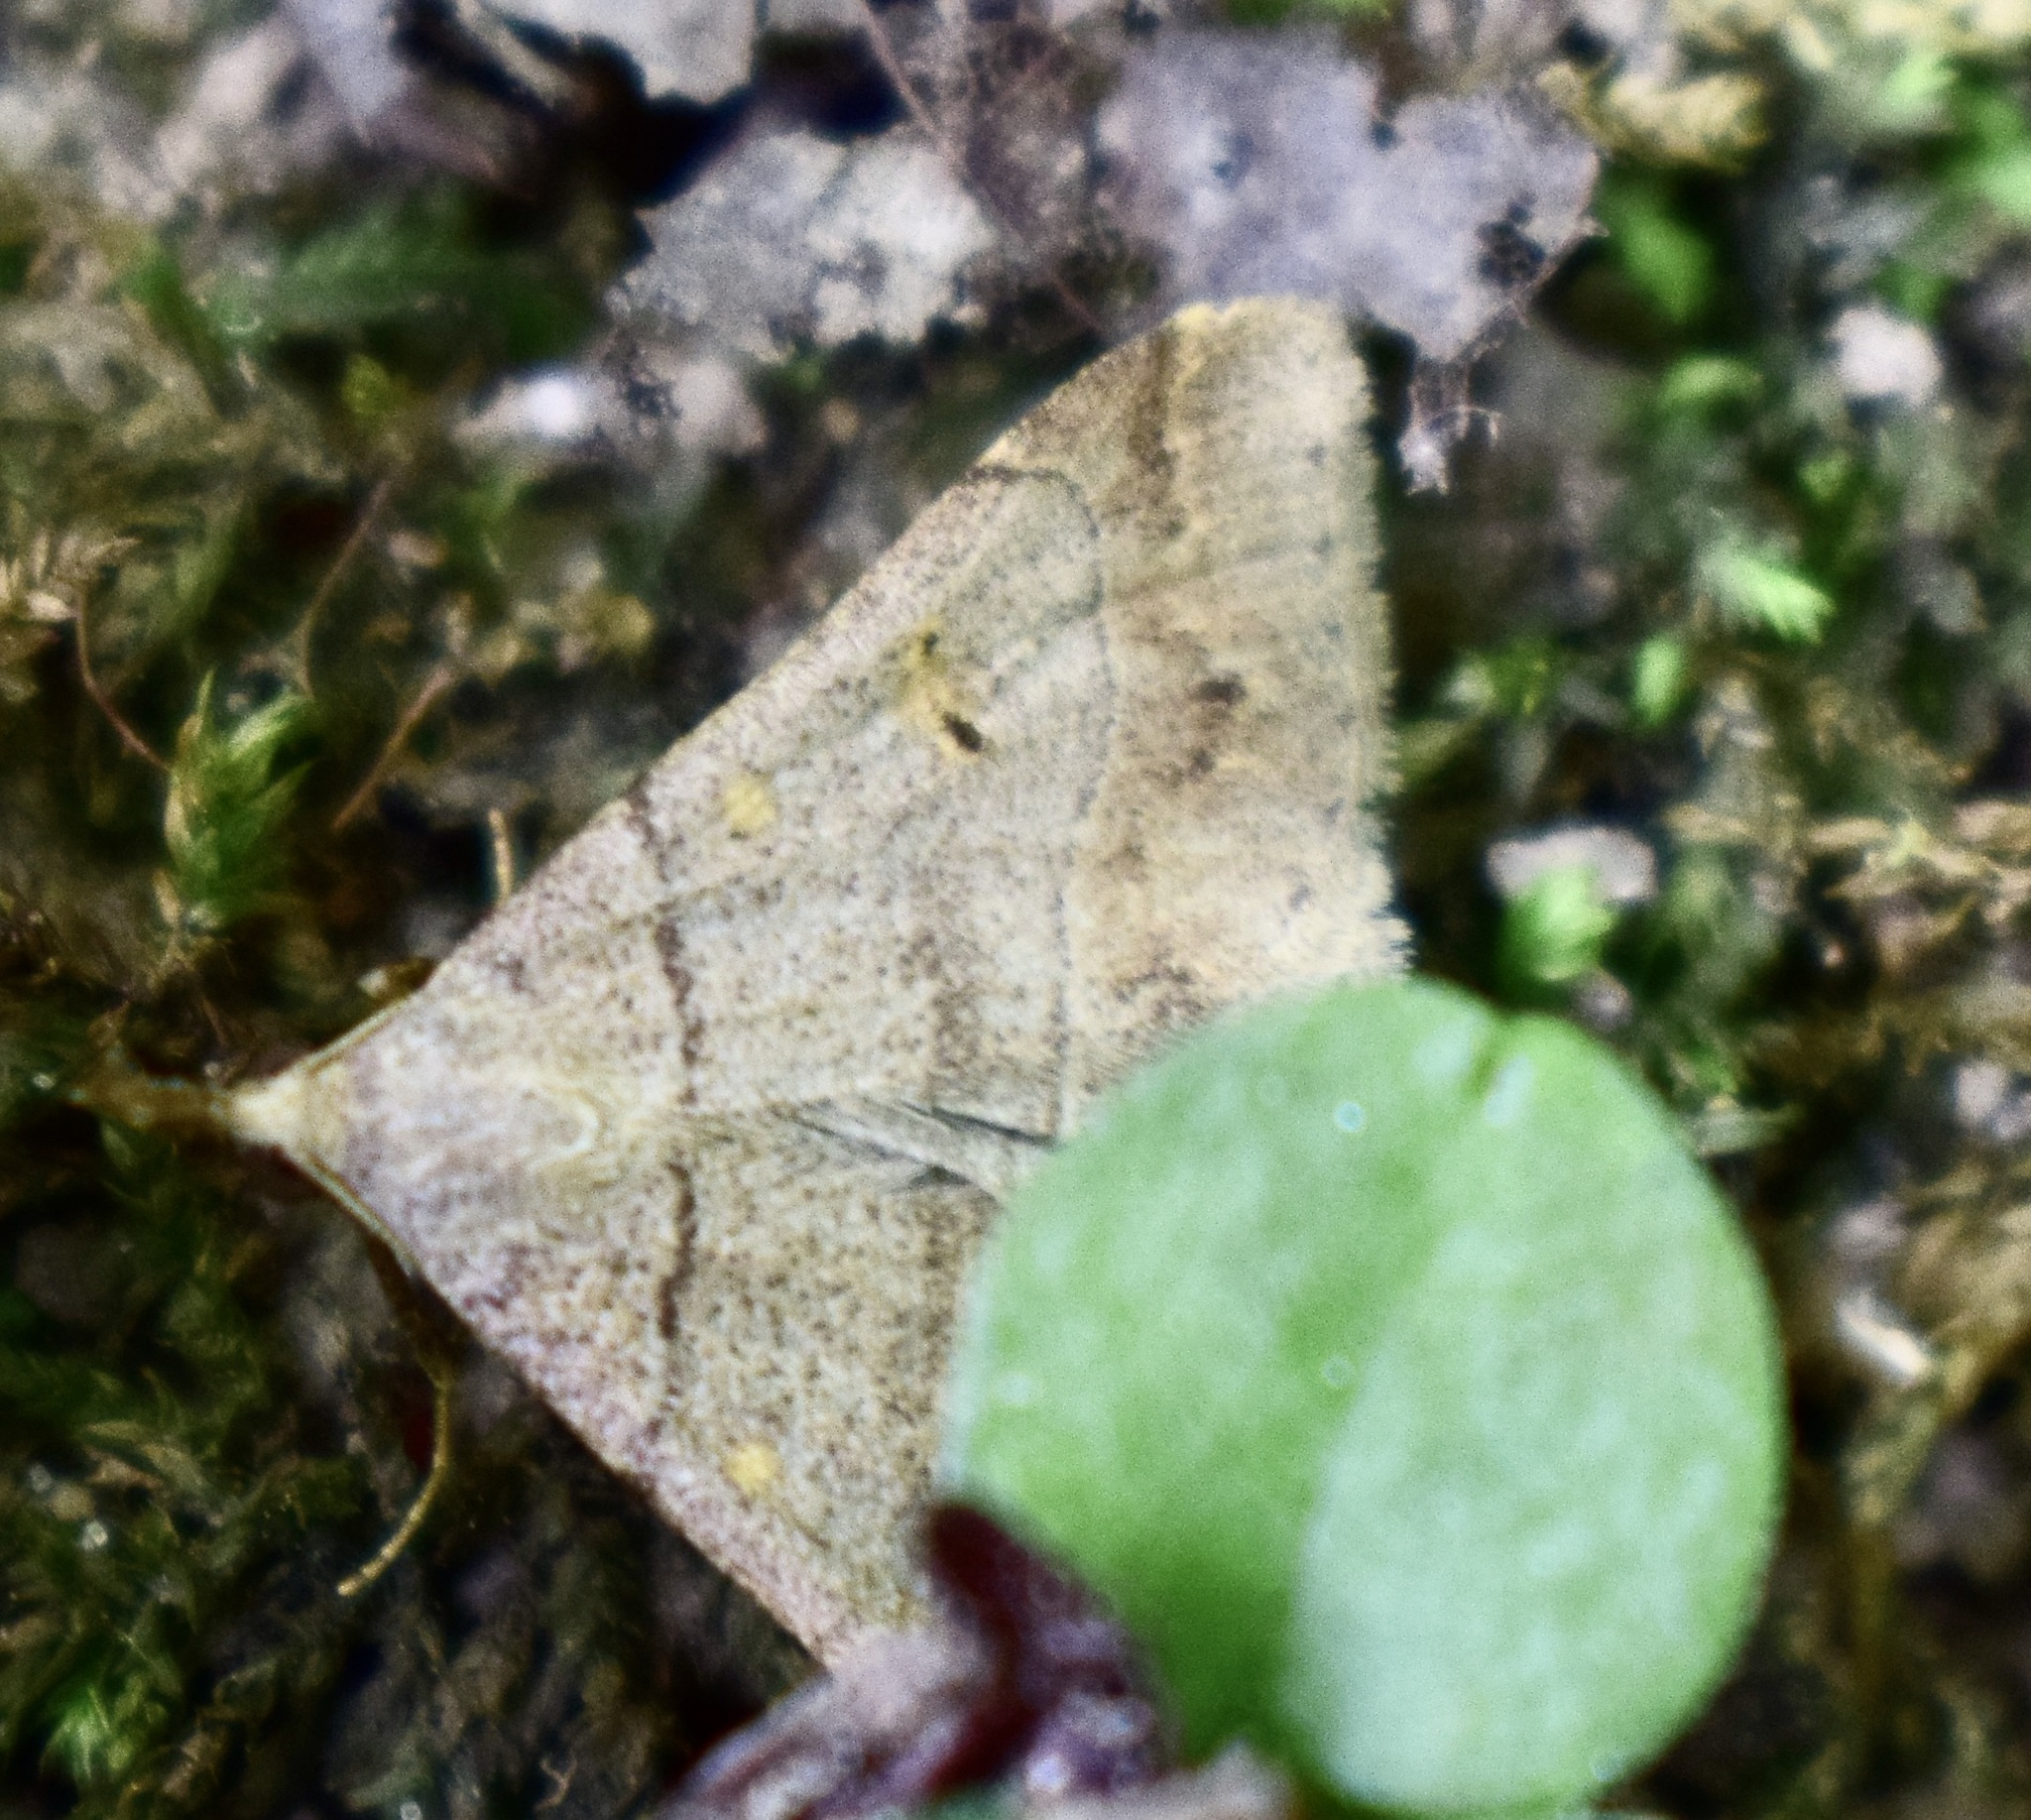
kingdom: Animalia
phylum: Arthropoda
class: Insecta
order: Lepidoptera
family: Erebidae
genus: Renia
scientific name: Renia flavipunctalis
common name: Yellow-spotted renia moth
